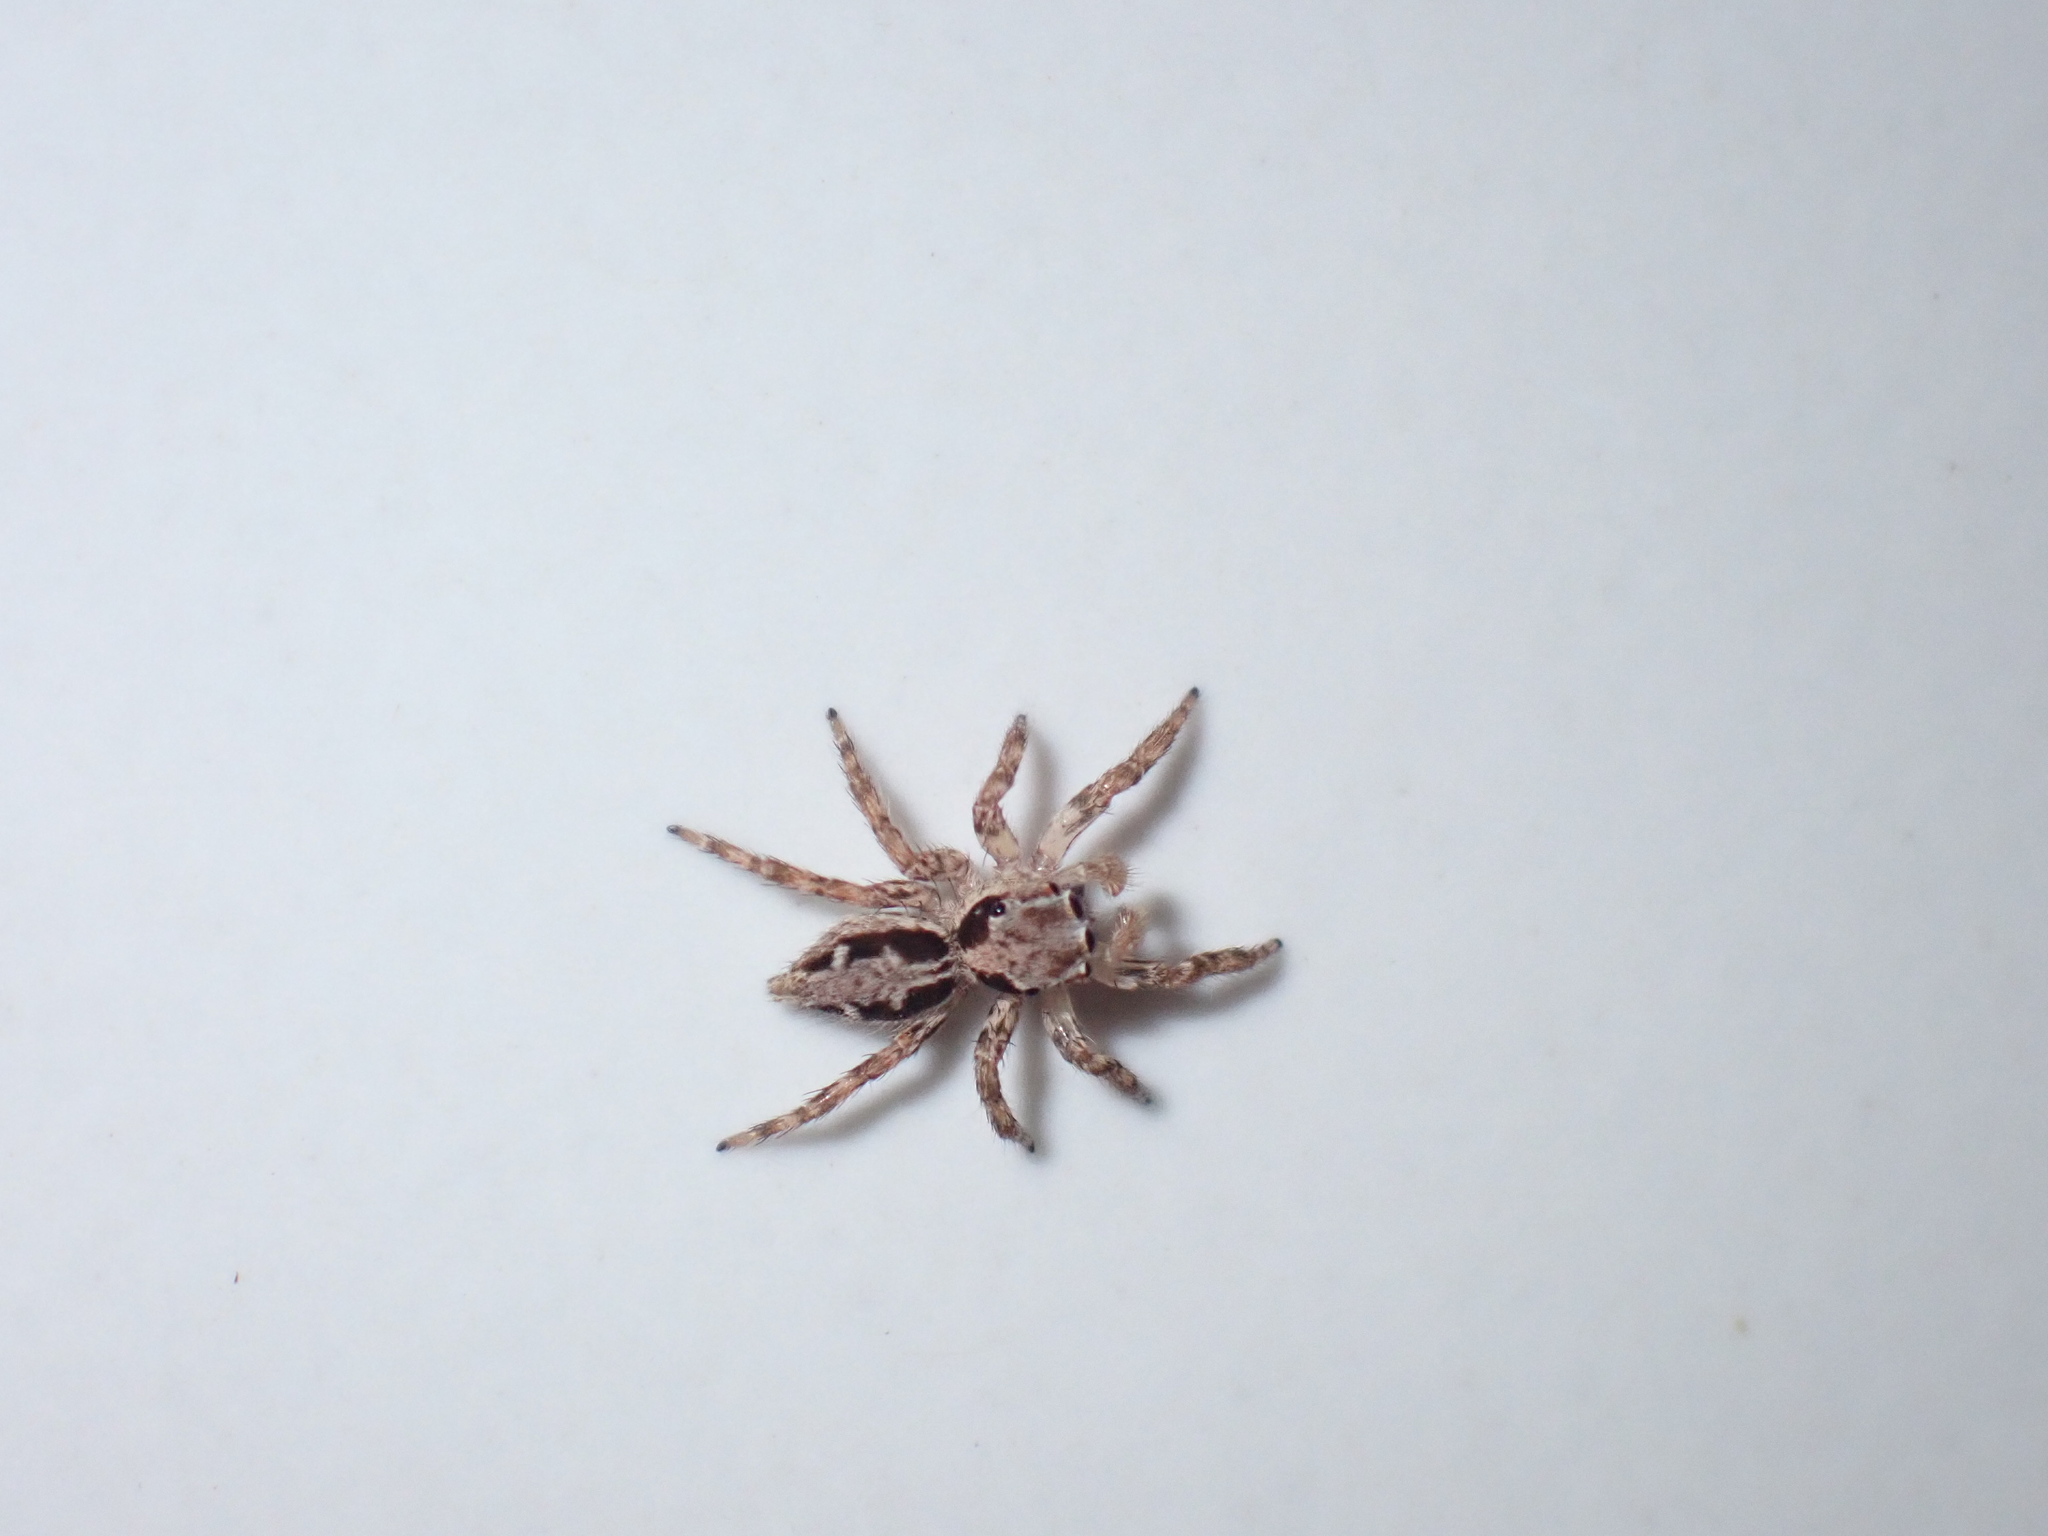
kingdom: Animalia
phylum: Arthropoda
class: Arachnida
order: Araneae
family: Salticidae
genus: Plexippus
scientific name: Plexippus petersi
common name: Jumping spider
